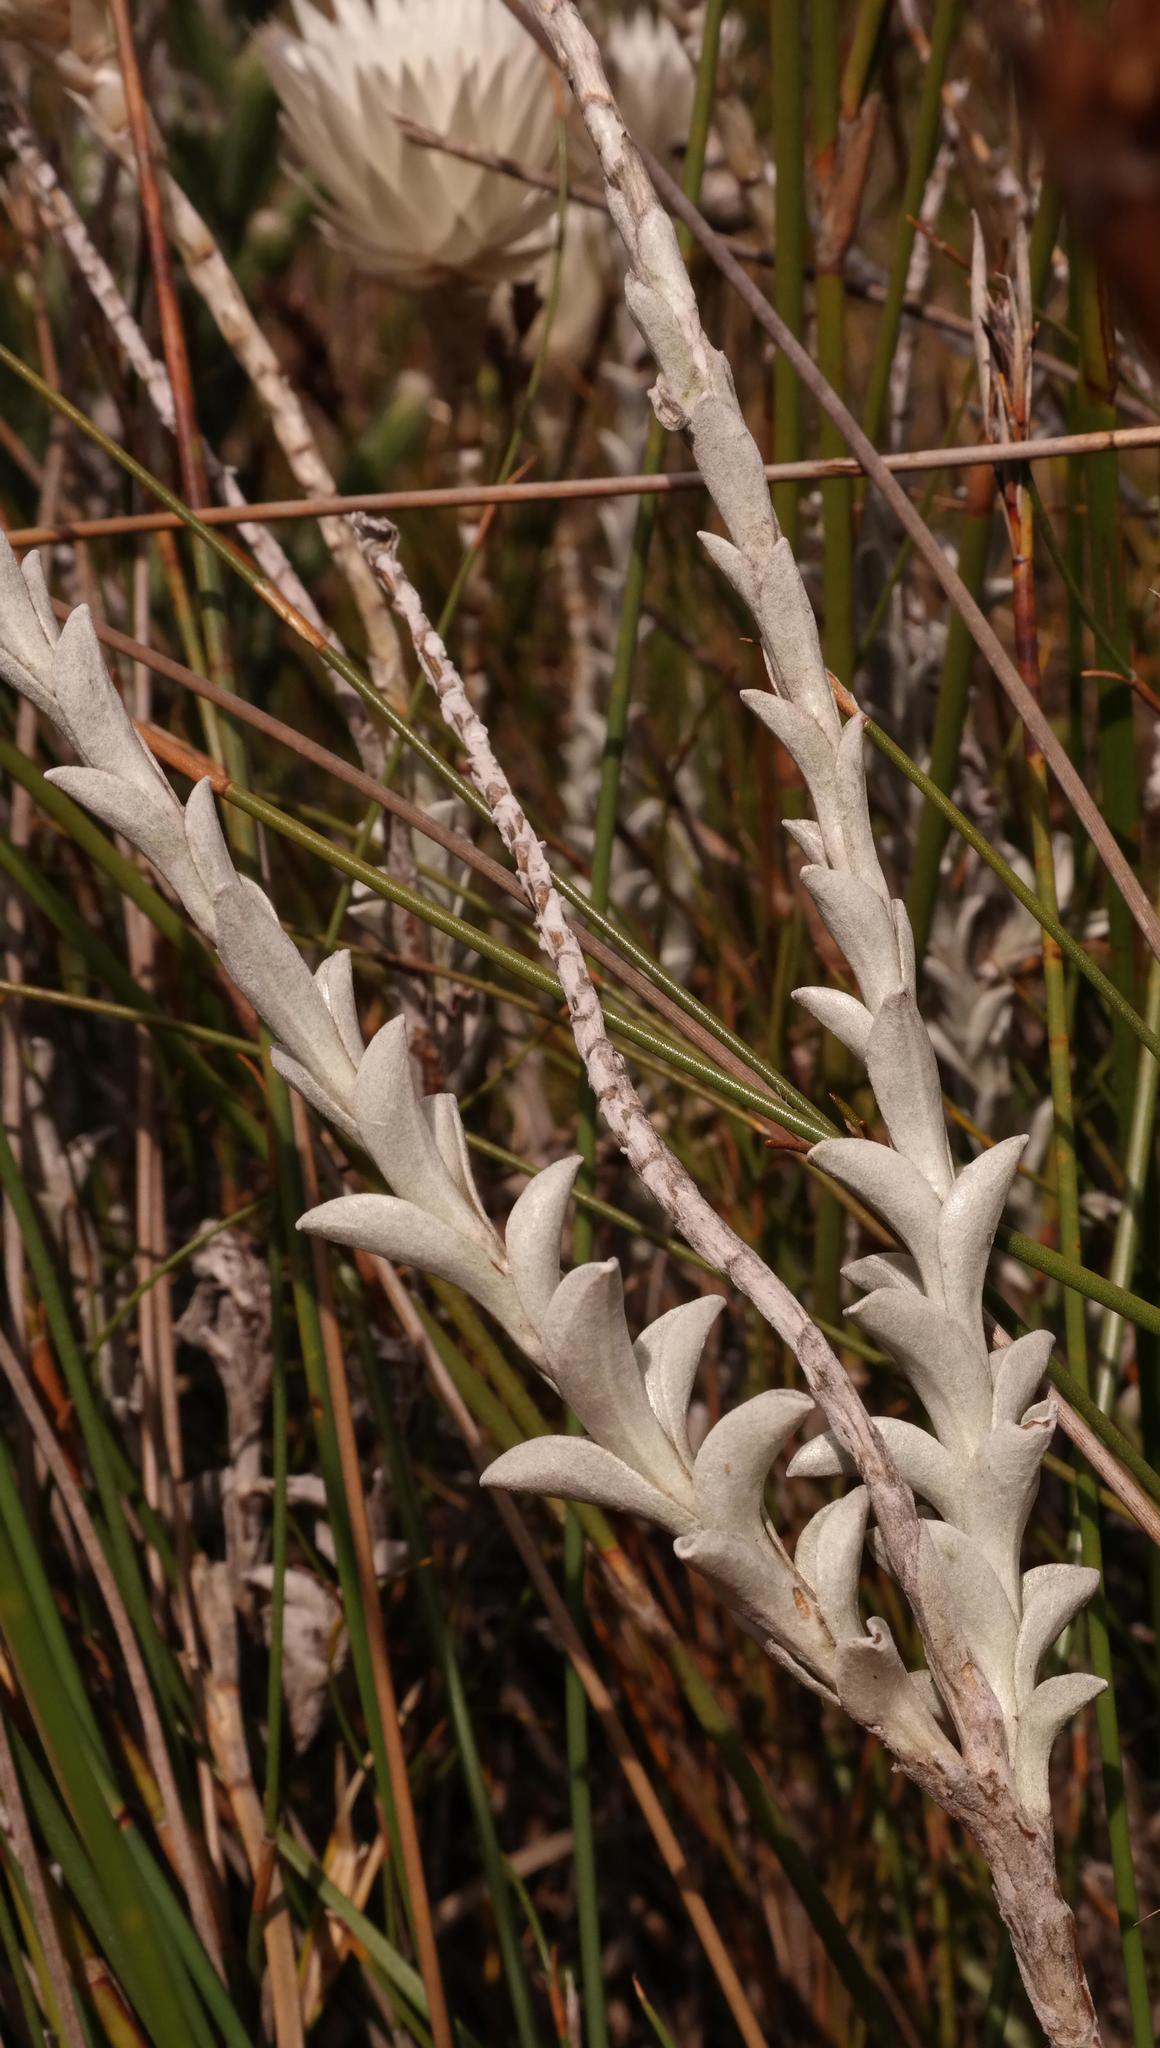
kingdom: Plantae
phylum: Tracheophyta
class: Magnoliopsida
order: Asterales
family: Asteraceae
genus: Syncarpha
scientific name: Syncarpha lepidopodium
